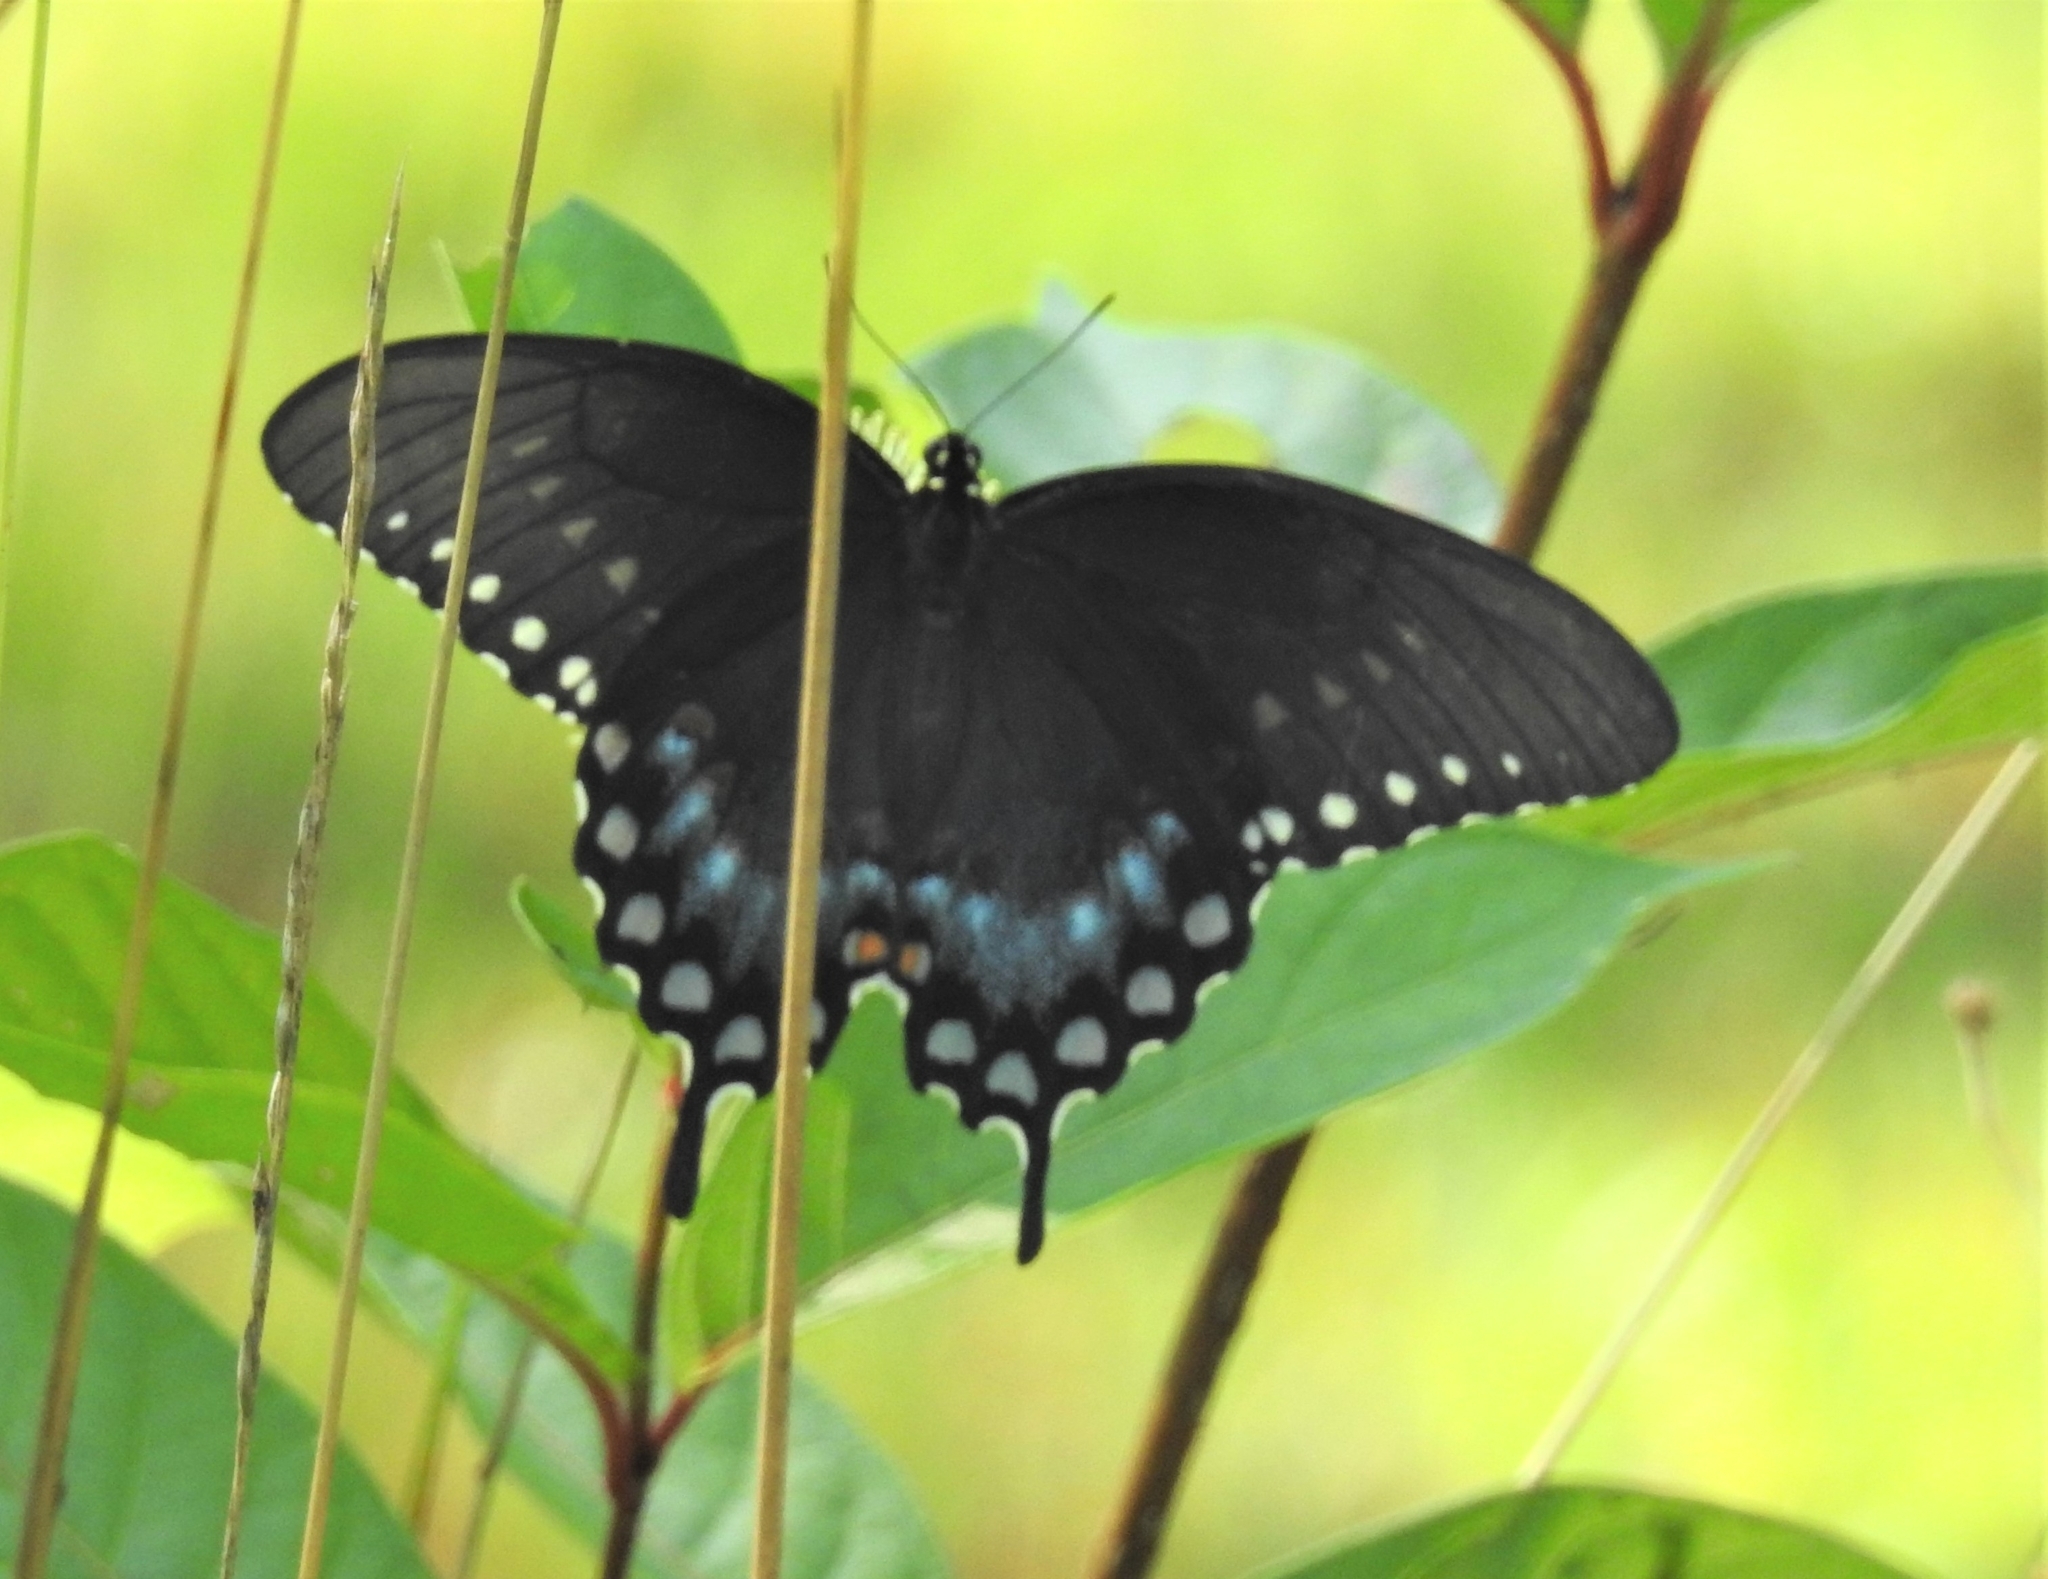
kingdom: Animalia
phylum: Arthropoda
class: Insecta
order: Lepidoptera
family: Papilionidae
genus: Papilio
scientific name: Papilio troilus
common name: Spicebush swallowtail
